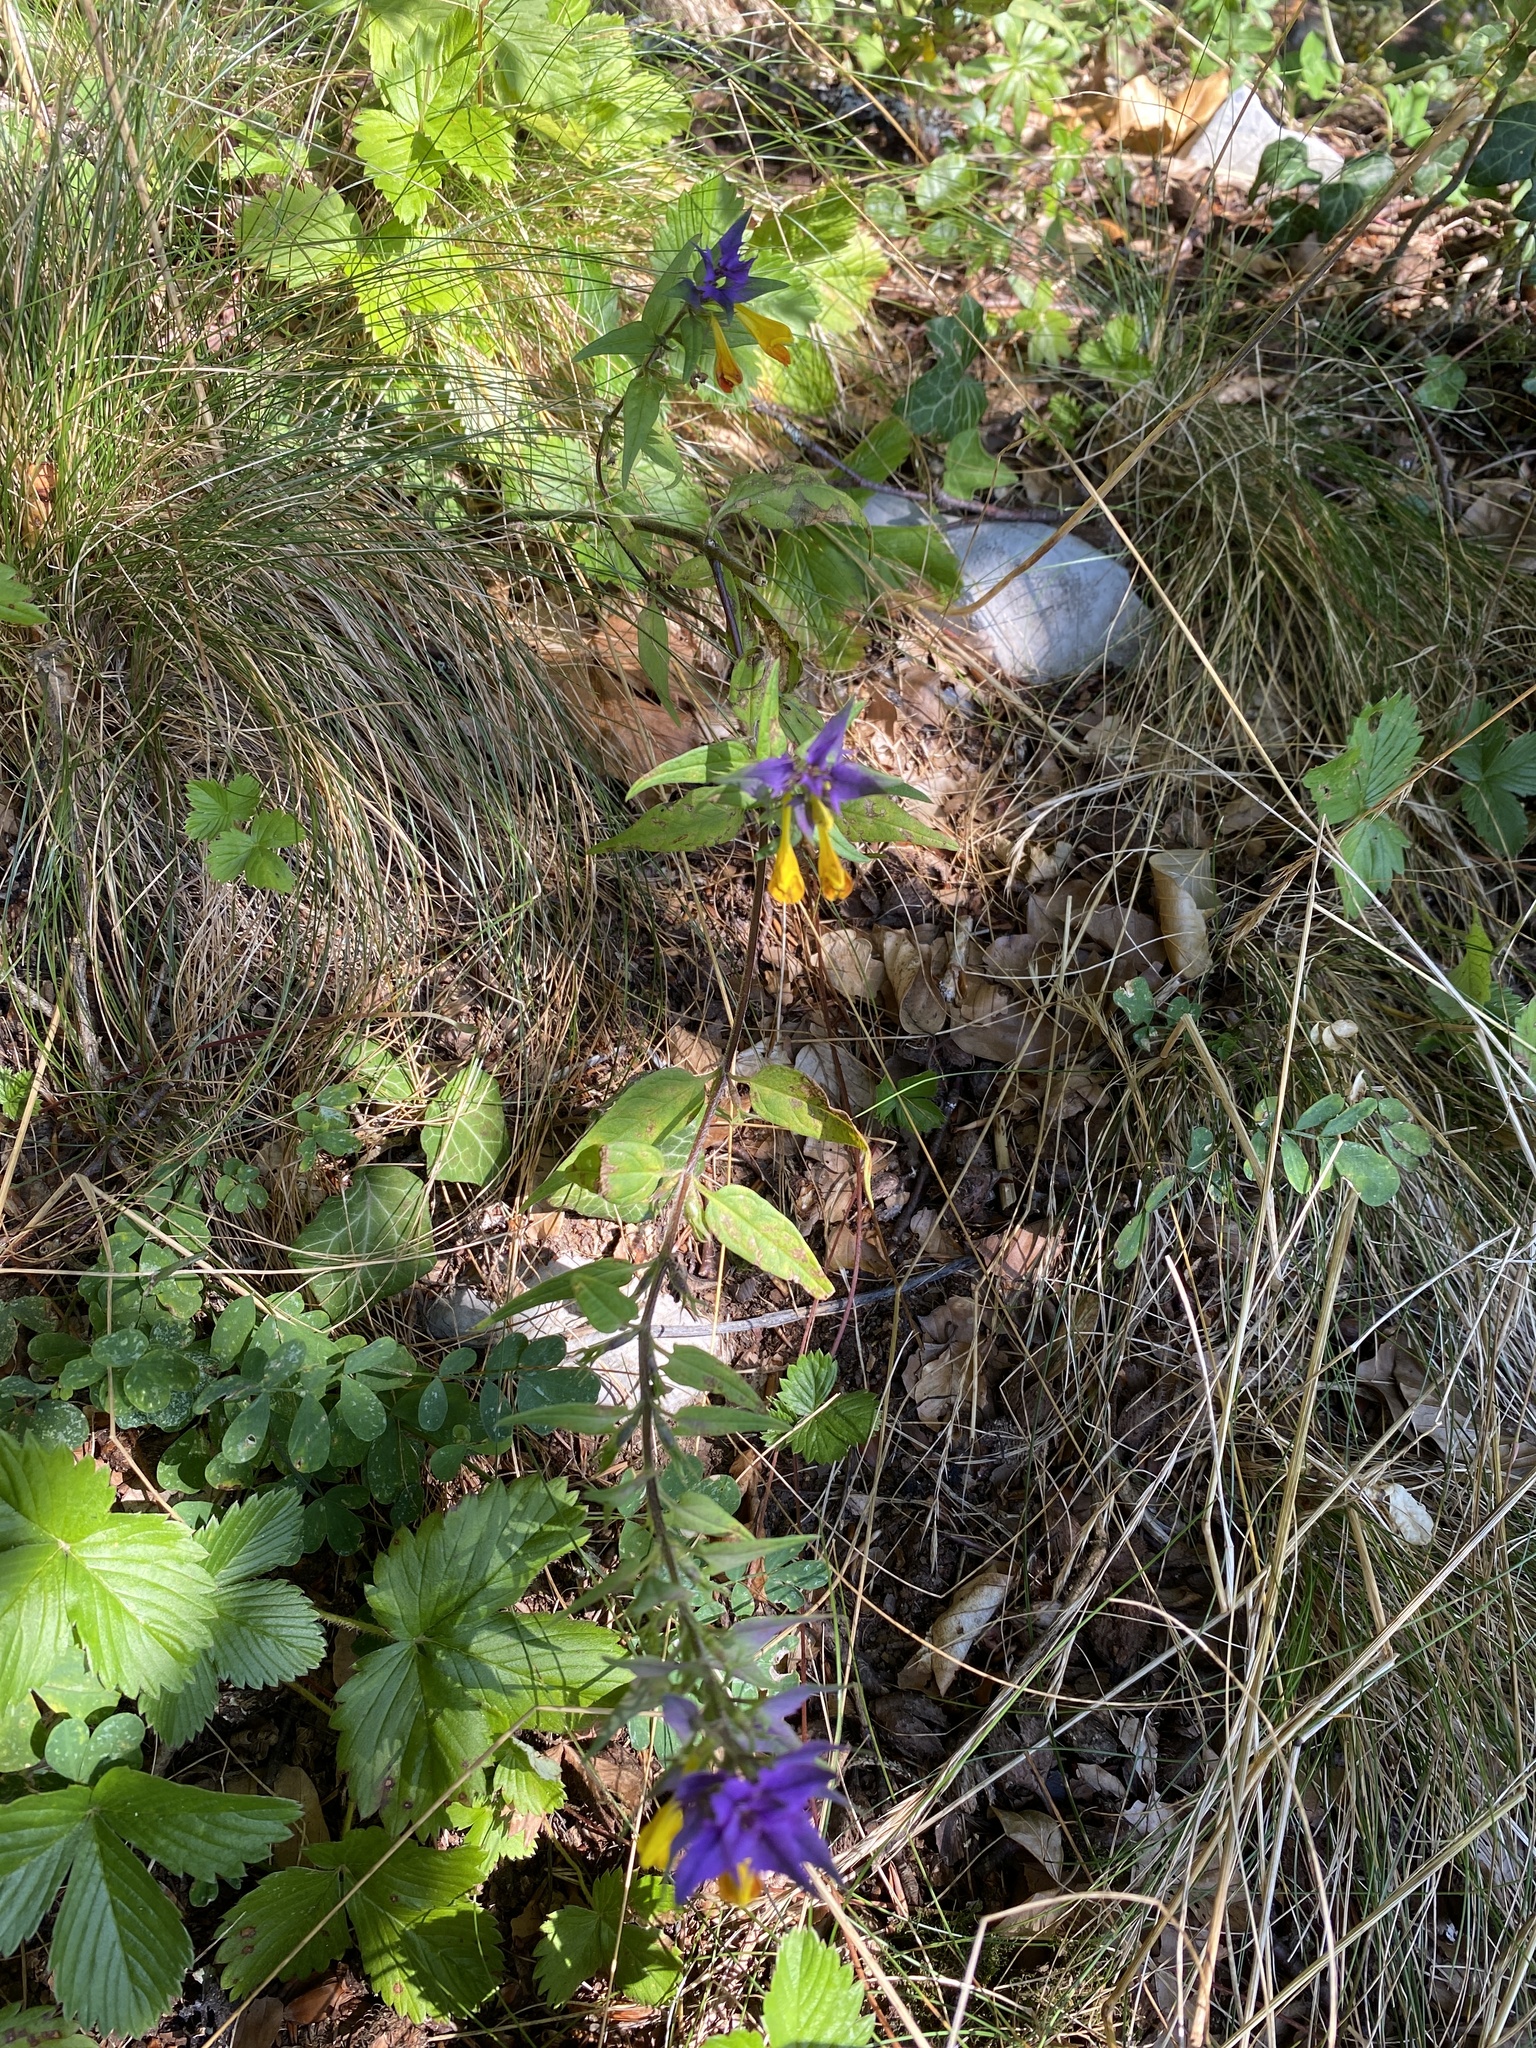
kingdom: Plantae
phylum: Tracheophyta
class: Magnoliopsida
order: Lamiales
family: Orobanchaceae
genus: Melampyrum
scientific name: Melampyrum catalaunicum
